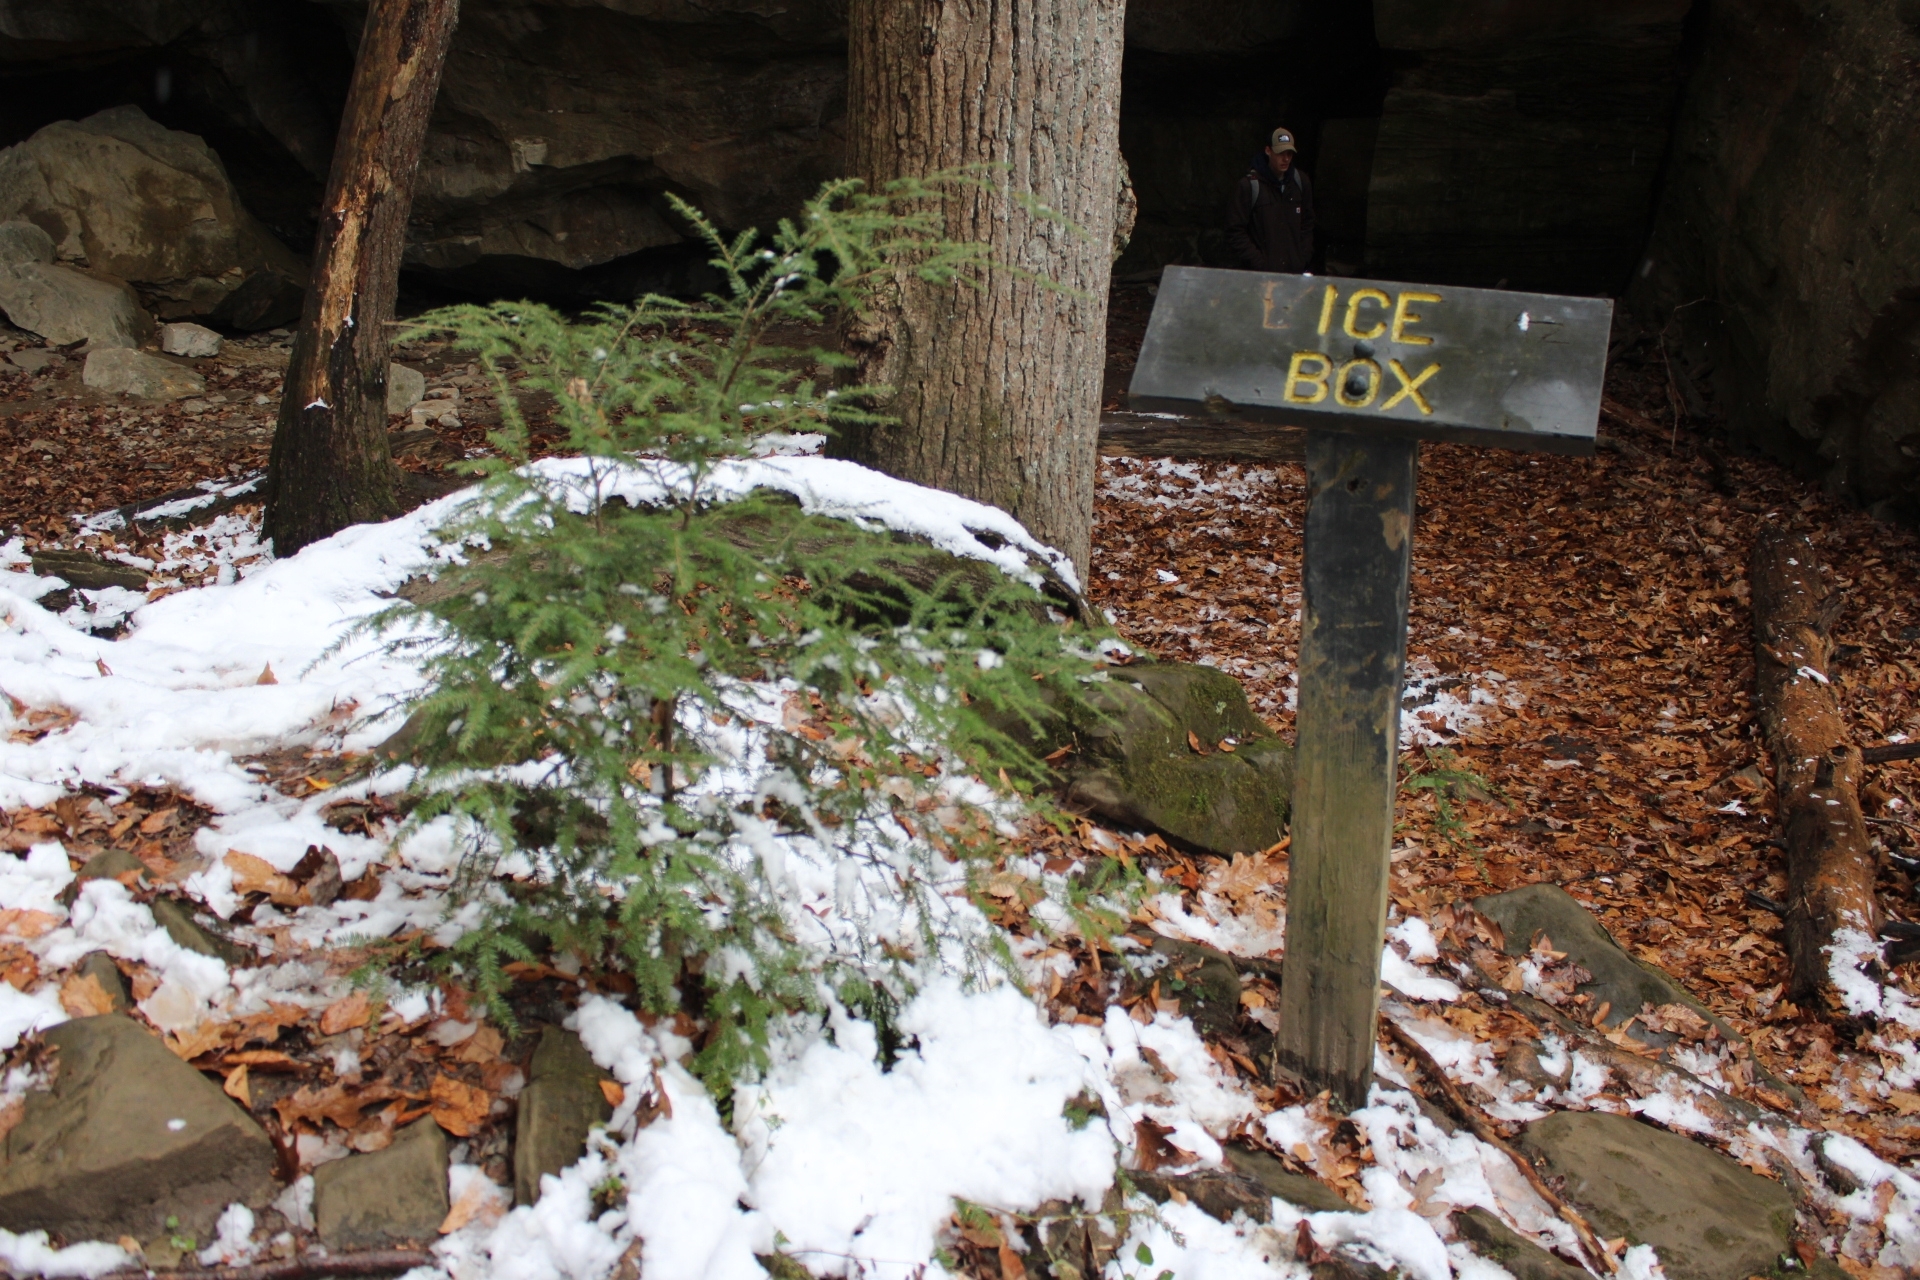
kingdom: Plantae
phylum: Tracheophyta
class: Pinopsida
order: Pinales
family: Pinaceae
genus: Tsuga
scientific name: Tsuga canadensis
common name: Eastern hemlock
